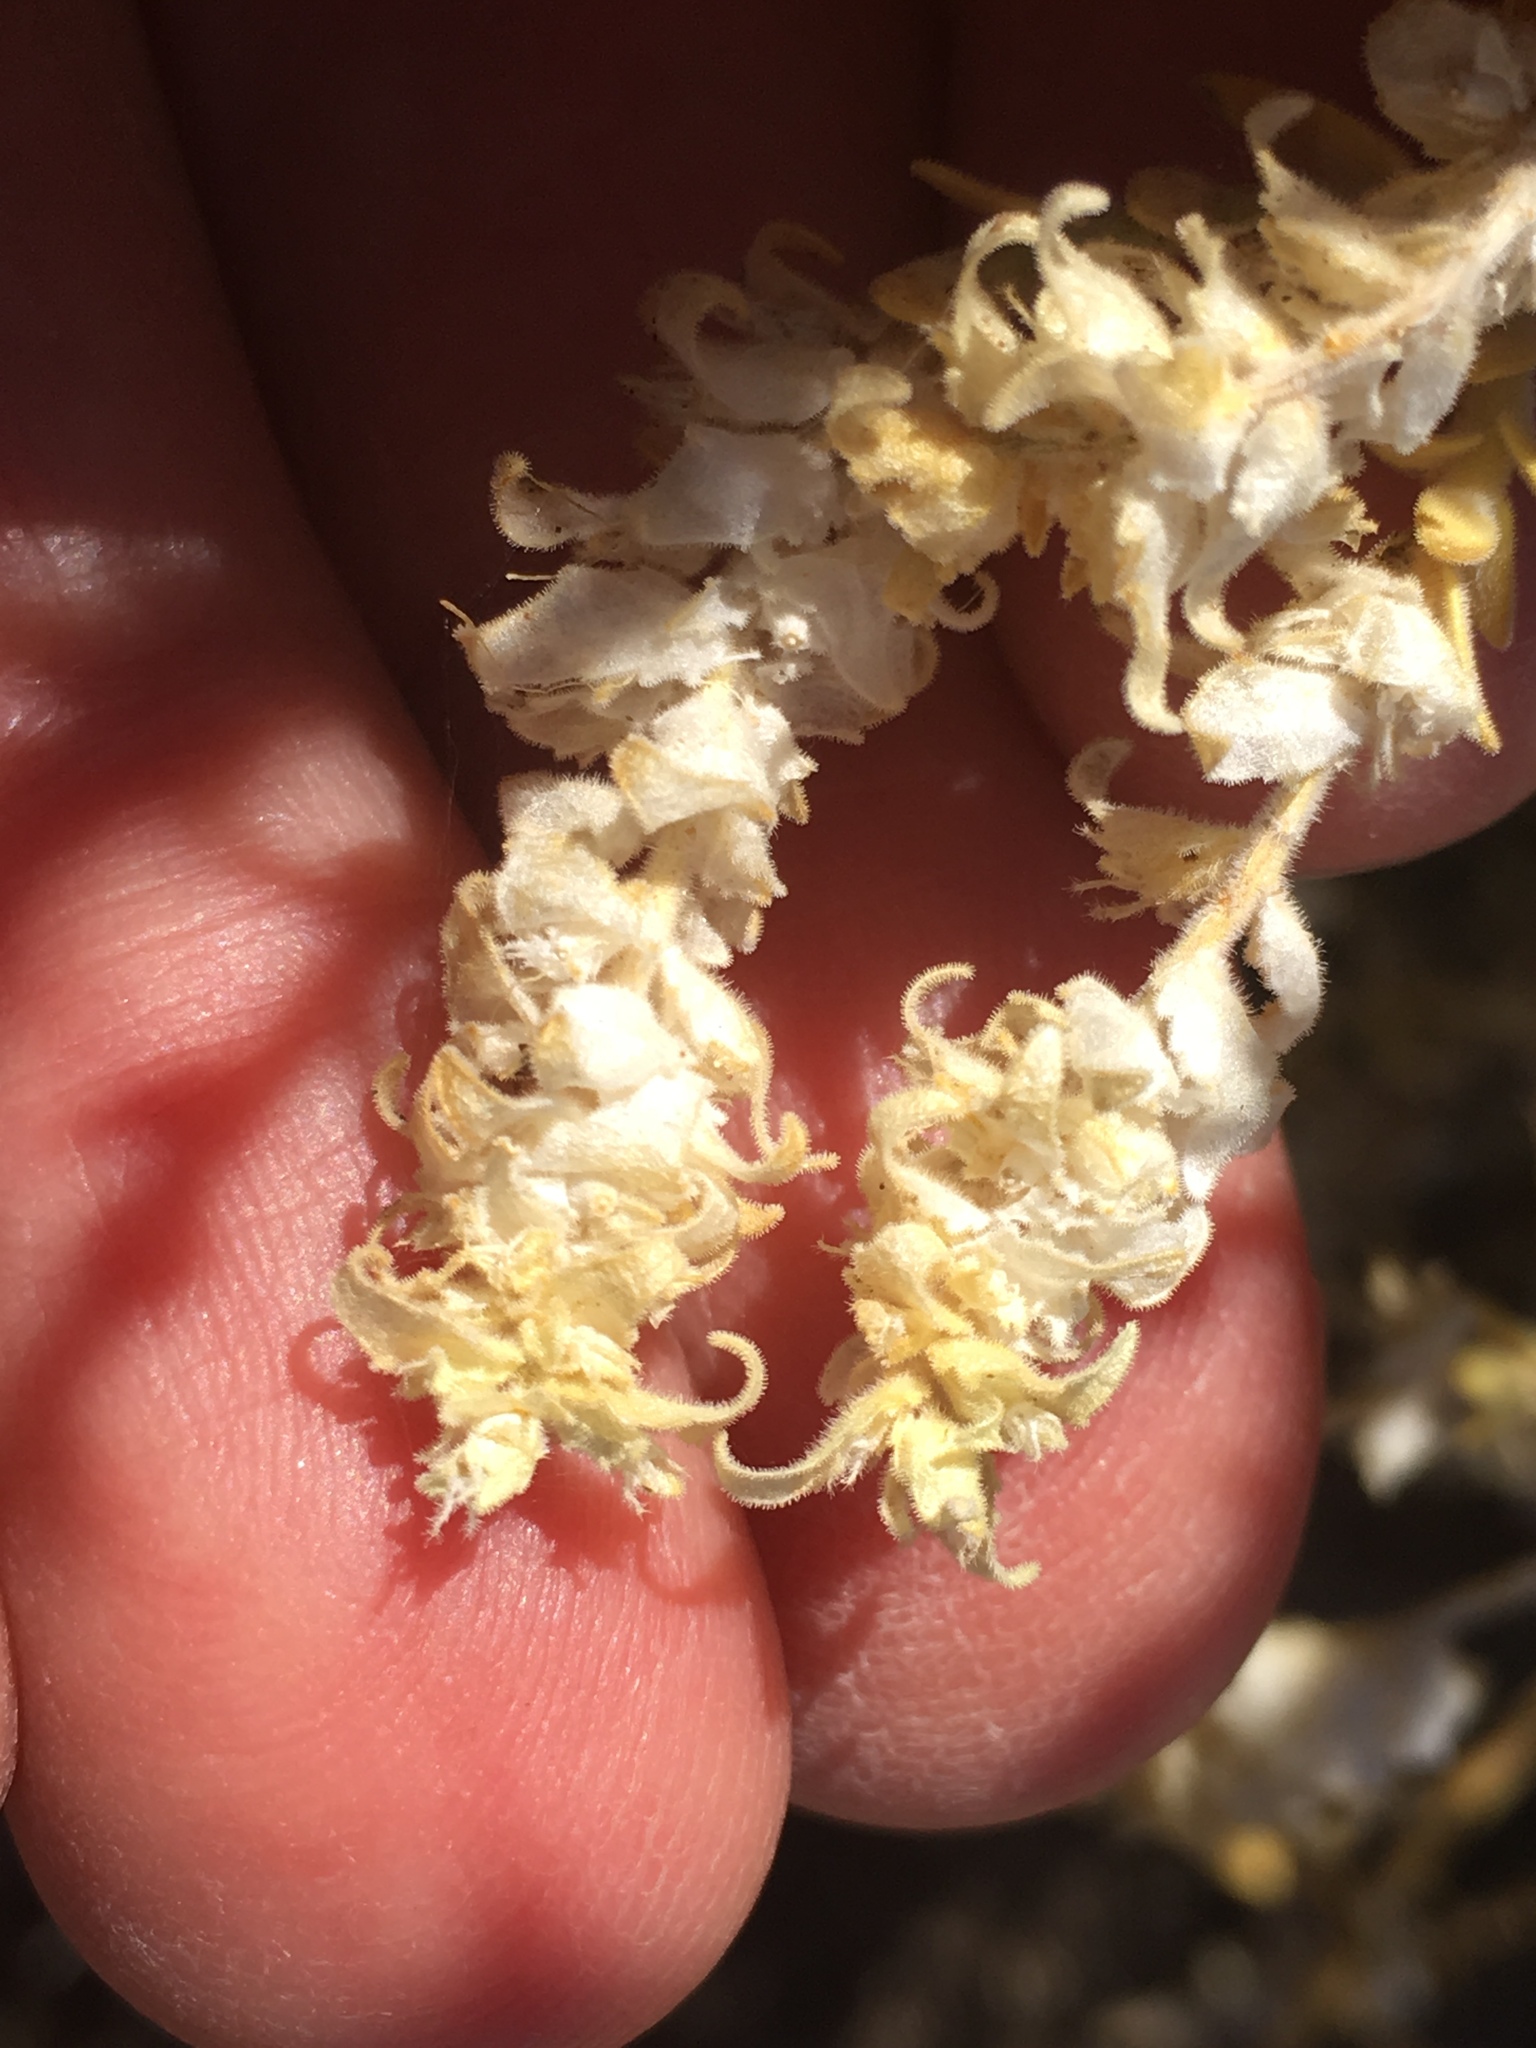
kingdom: Plantae
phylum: Tracheophyta
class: Magnoliopsida
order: Cornales
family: Loasaceae
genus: Petalonyx
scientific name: Petalonyx thurberi
